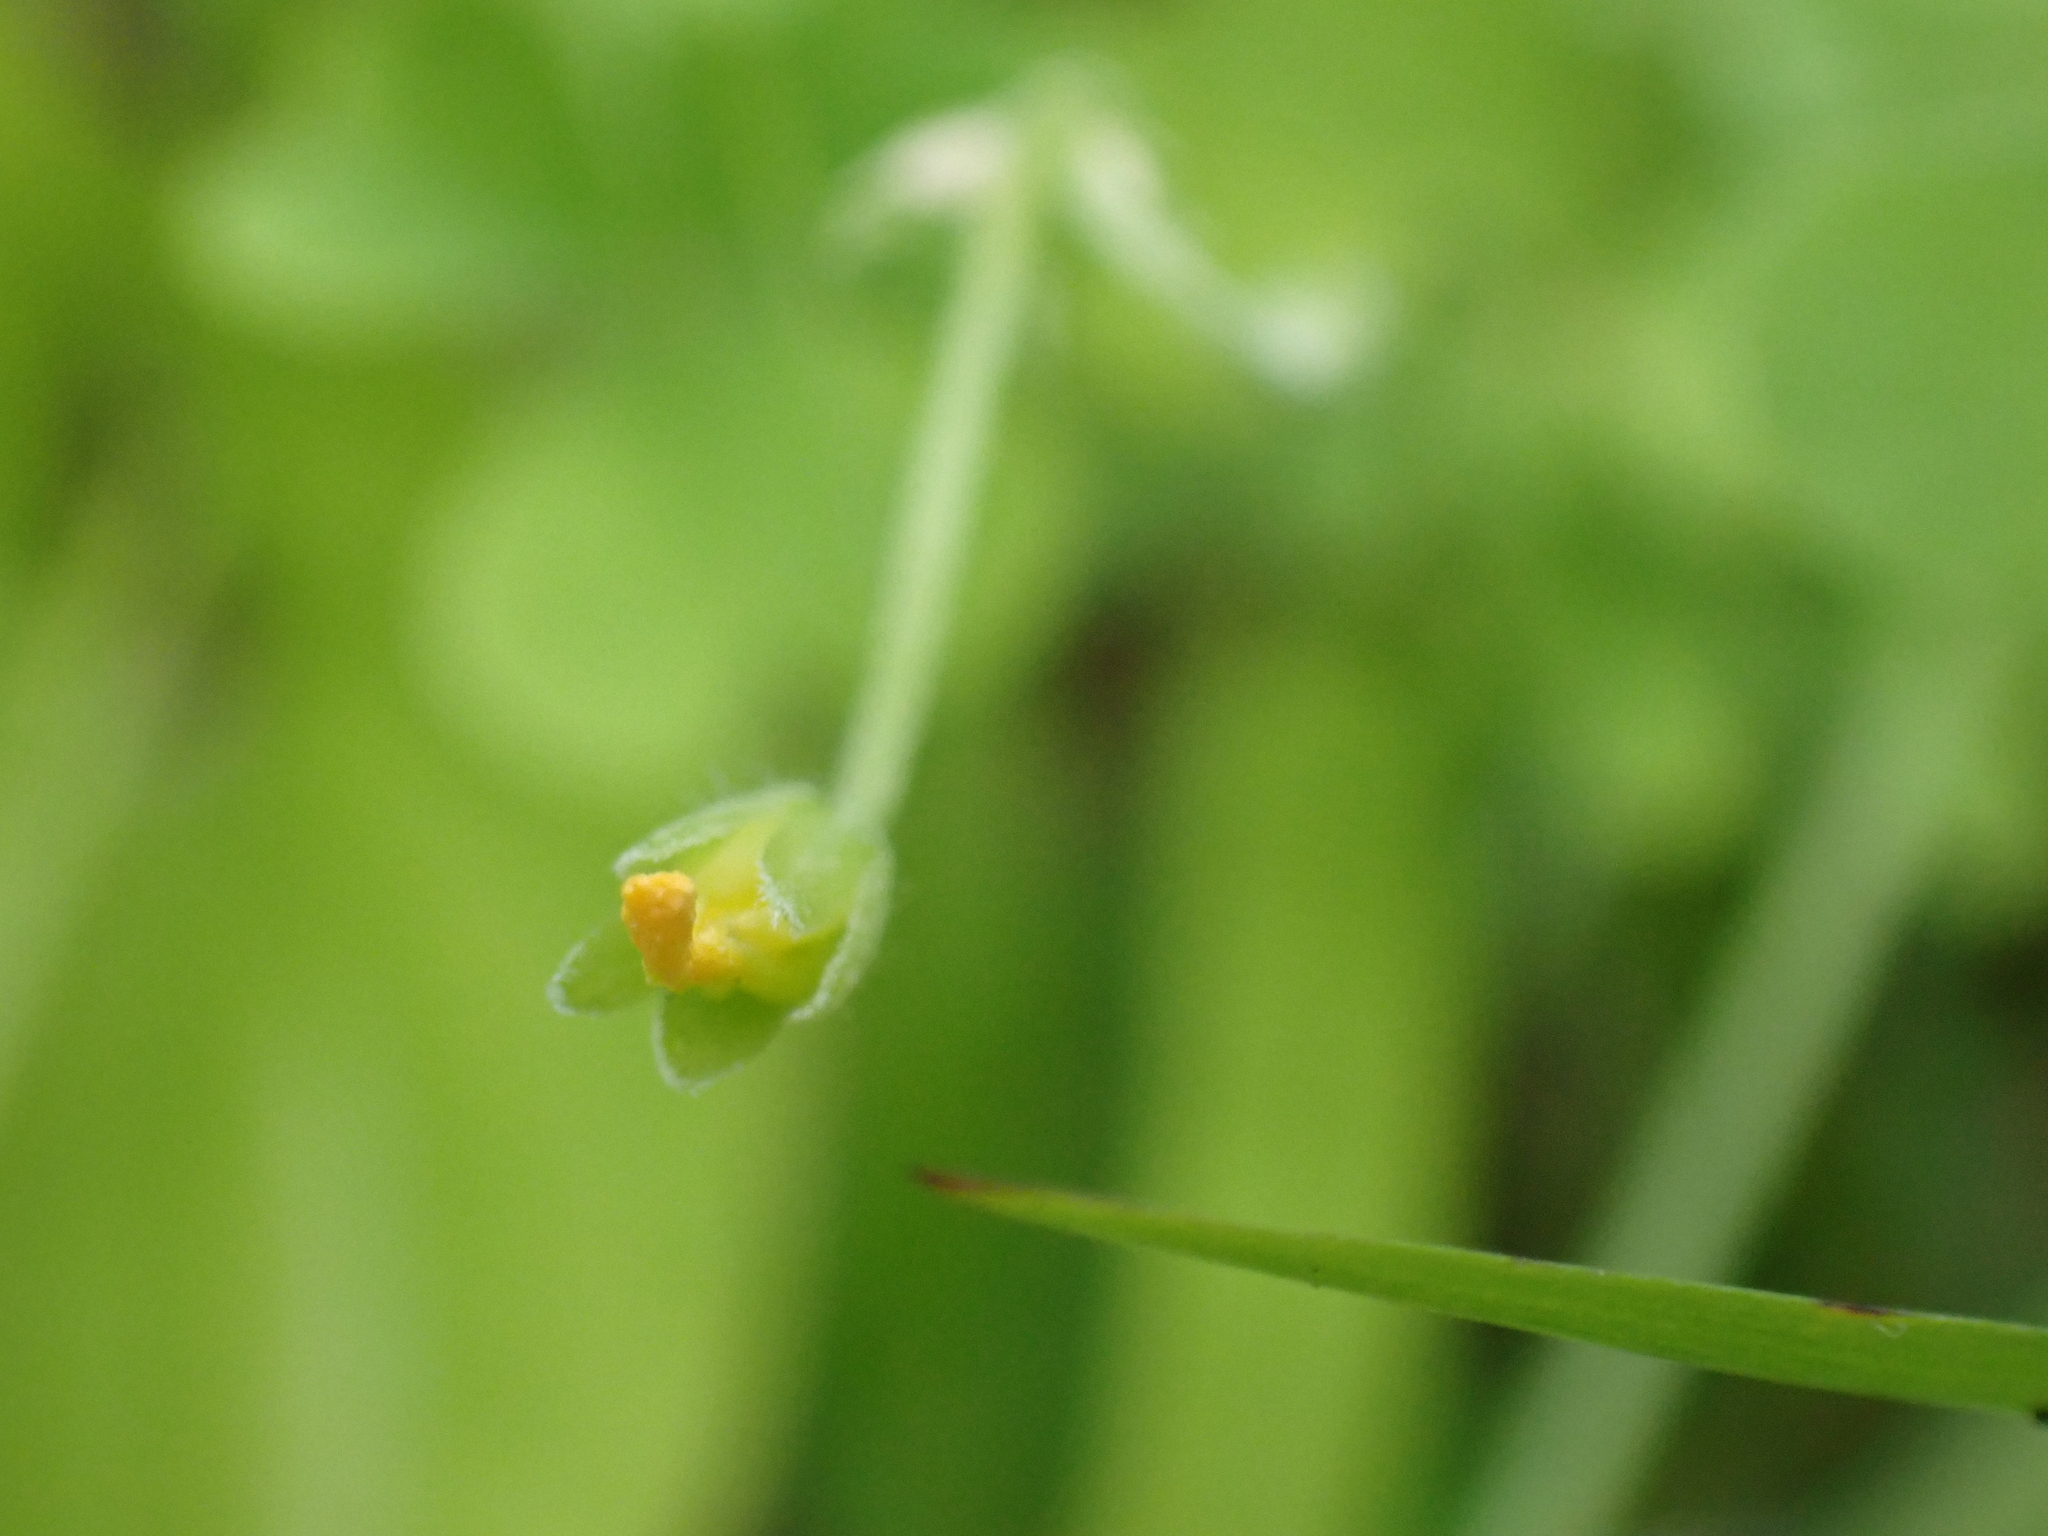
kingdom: Plantae
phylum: Tracheophyta
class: Magnoliopsida
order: Oxalidales
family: Oxalidaceae
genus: Oxalis
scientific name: Oxalis dillenii
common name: Sussex yellow-sorrel
